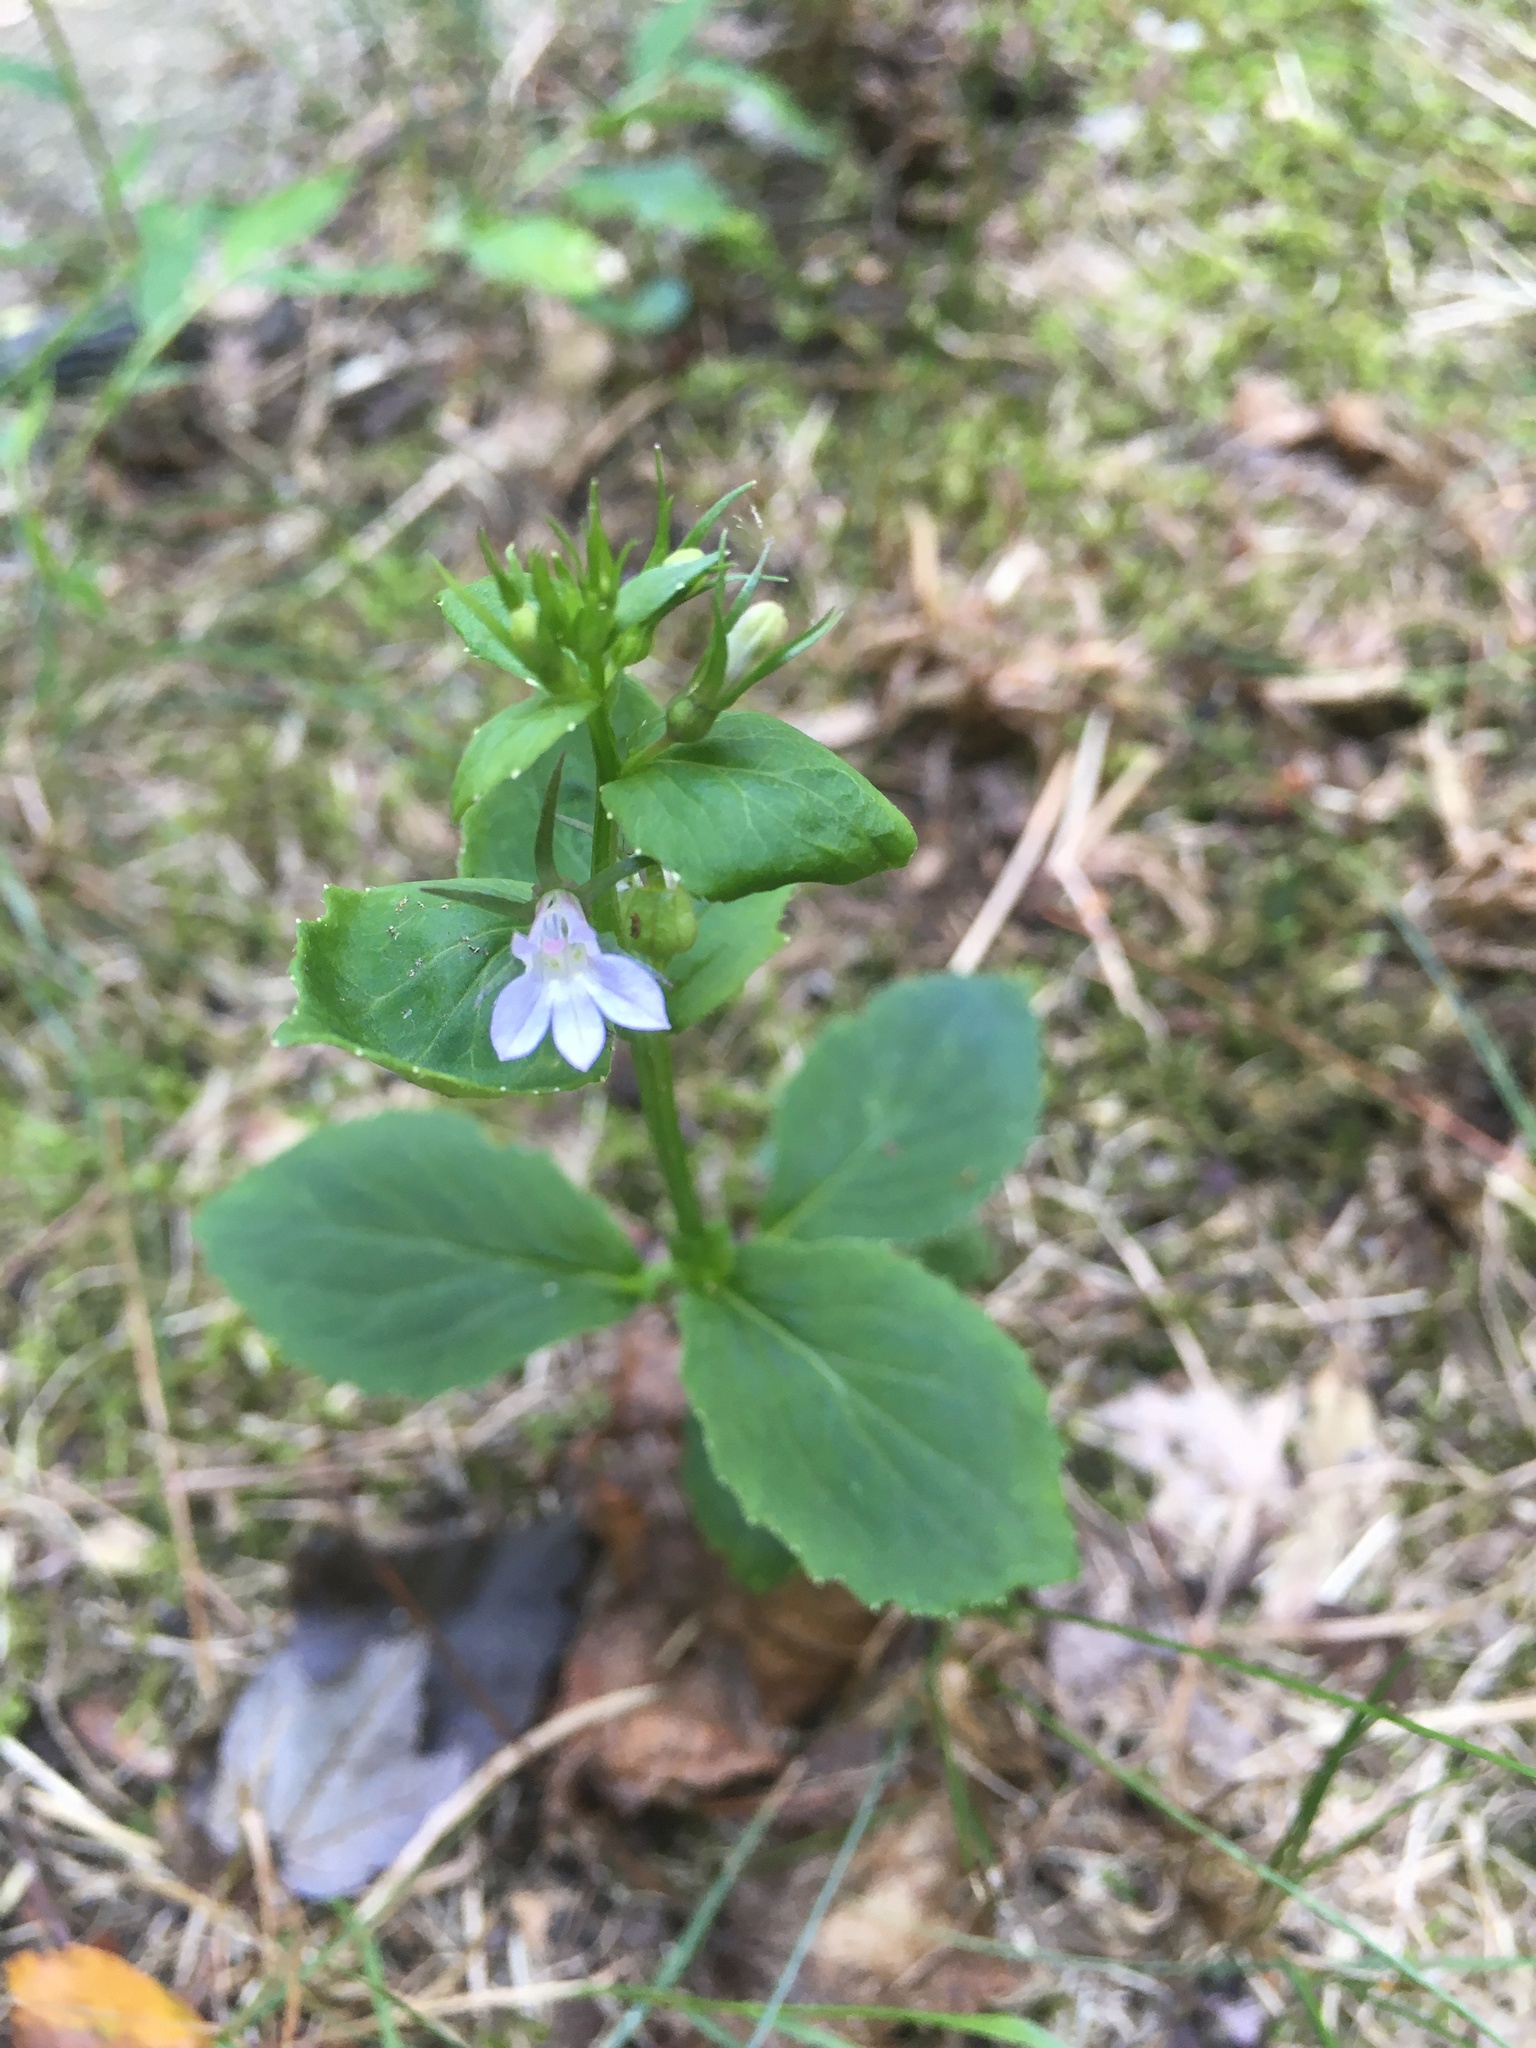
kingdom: Plantae
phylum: Tracheophyta
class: Magnoliopsida
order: Asterales
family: Campanulaceae
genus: Lobelia
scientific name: Lobelia inflata
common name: Indian tobacco
